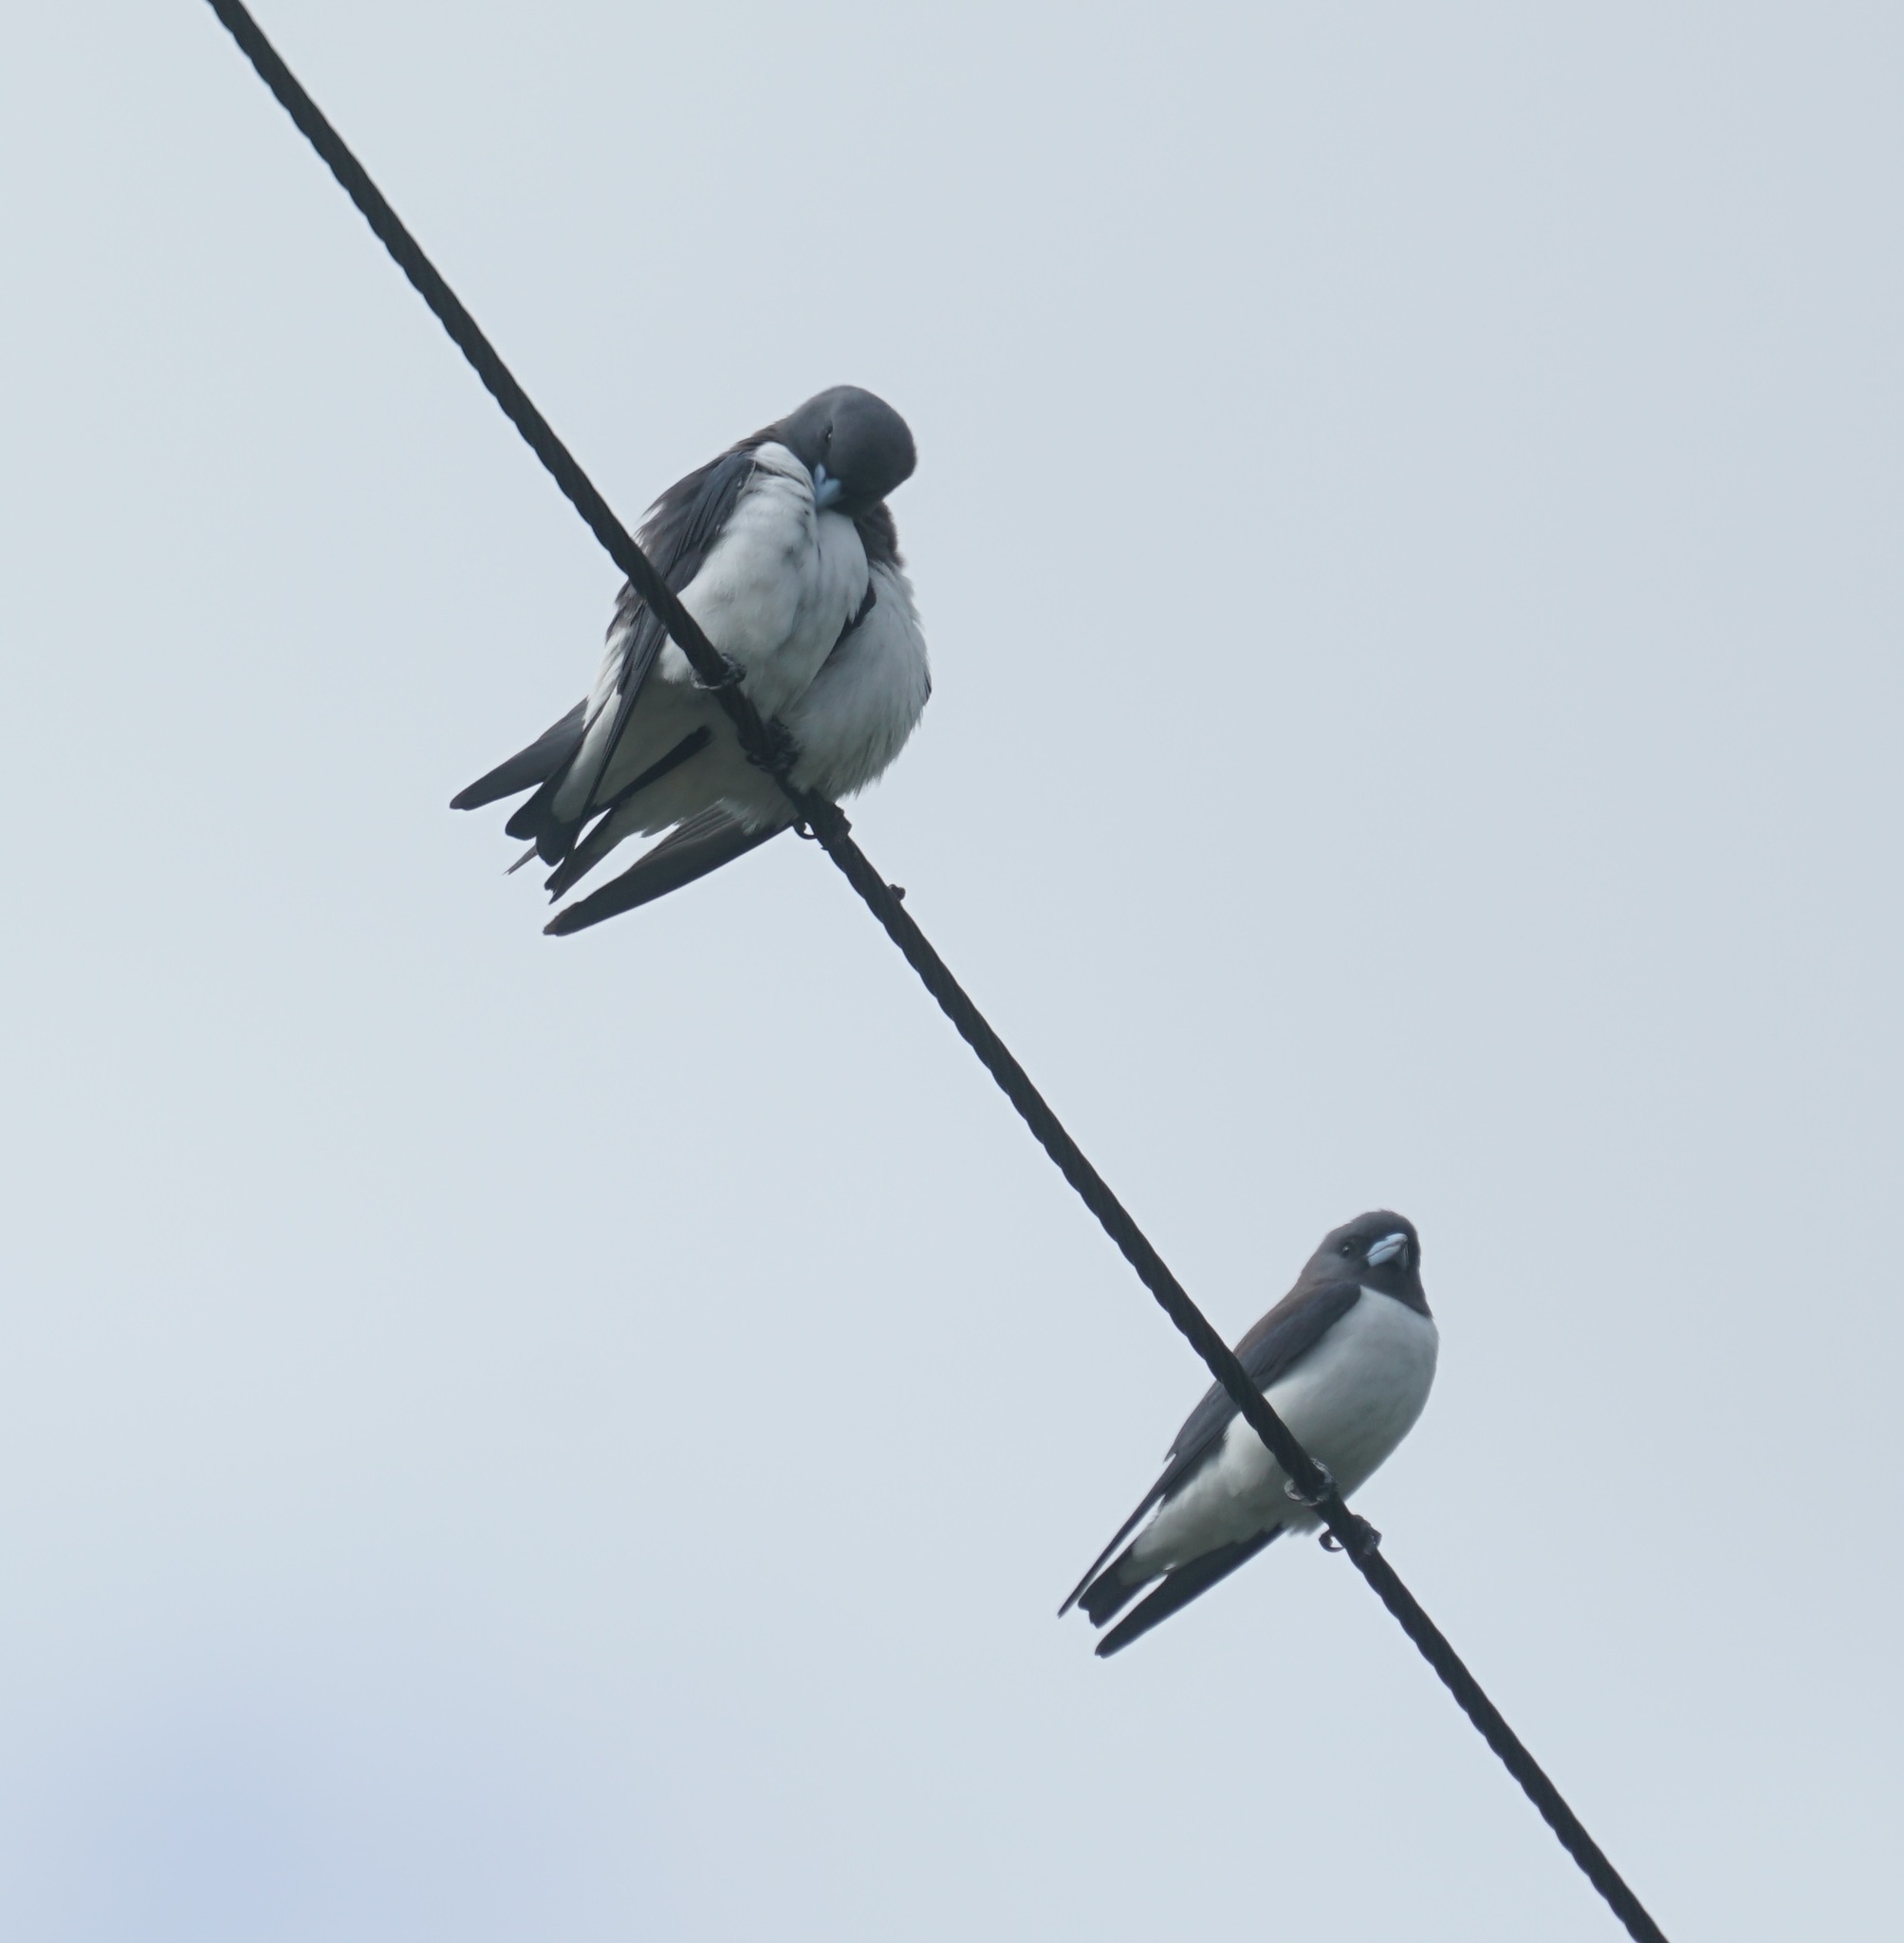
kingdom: Animalia
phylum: Chordata
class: Aves
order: Passeriformes
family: Artamidae
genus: Artamus
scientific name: Artamus leucoryn
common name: White-breasted woodswallow
